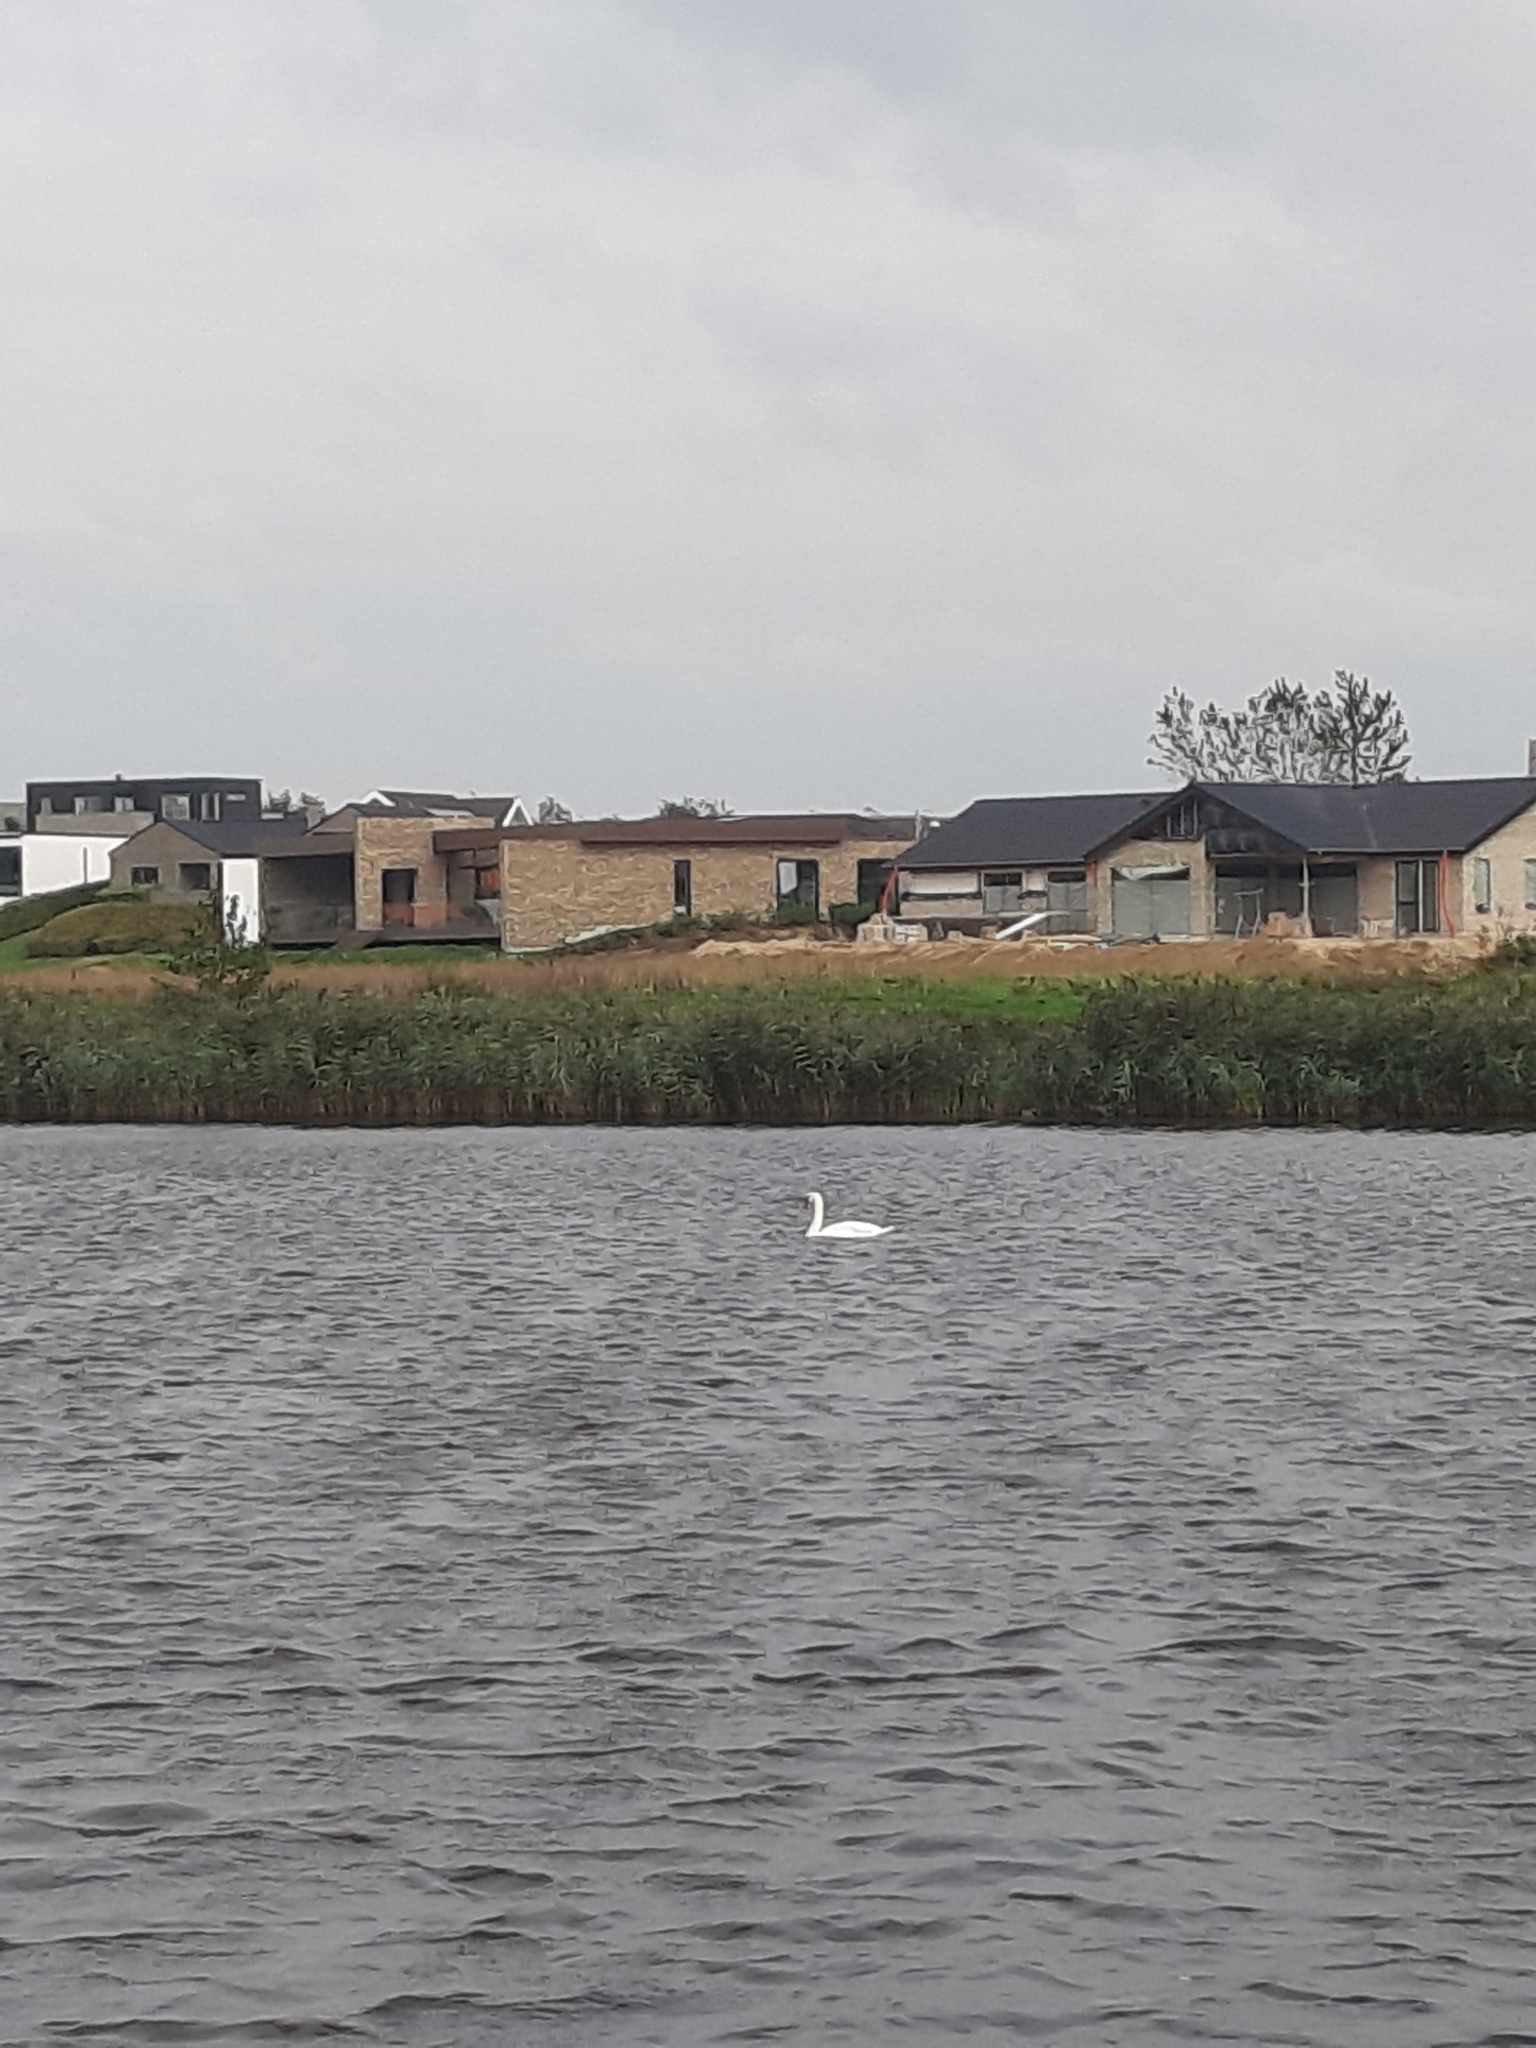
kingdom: Animalia
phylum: Chordata
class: Aves
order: Anseriformes
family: Anatidae
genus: Cygnus
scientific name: Cygnus olor
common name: Mute swan
